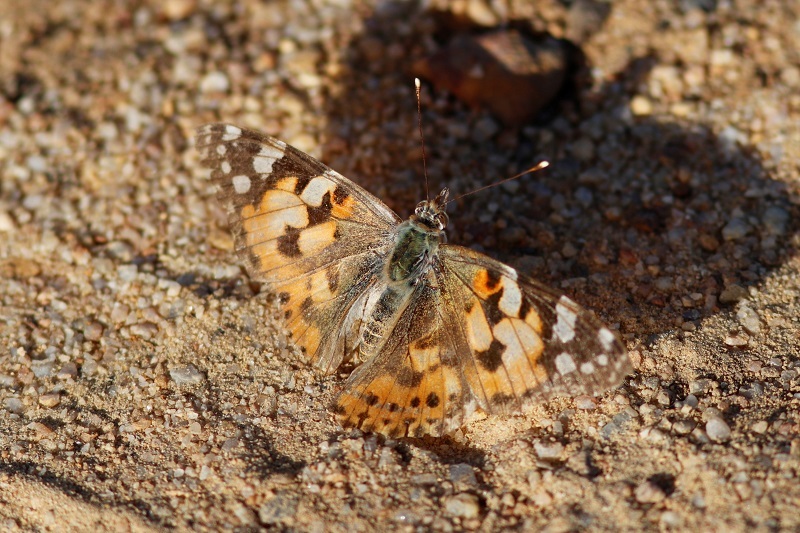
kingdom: Animalia
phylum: Arthropoda
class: Insecta
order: Lepidoptera
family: Nymphalidae
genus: Vanessa
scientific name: Vanessa cardui
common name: Painted lady
